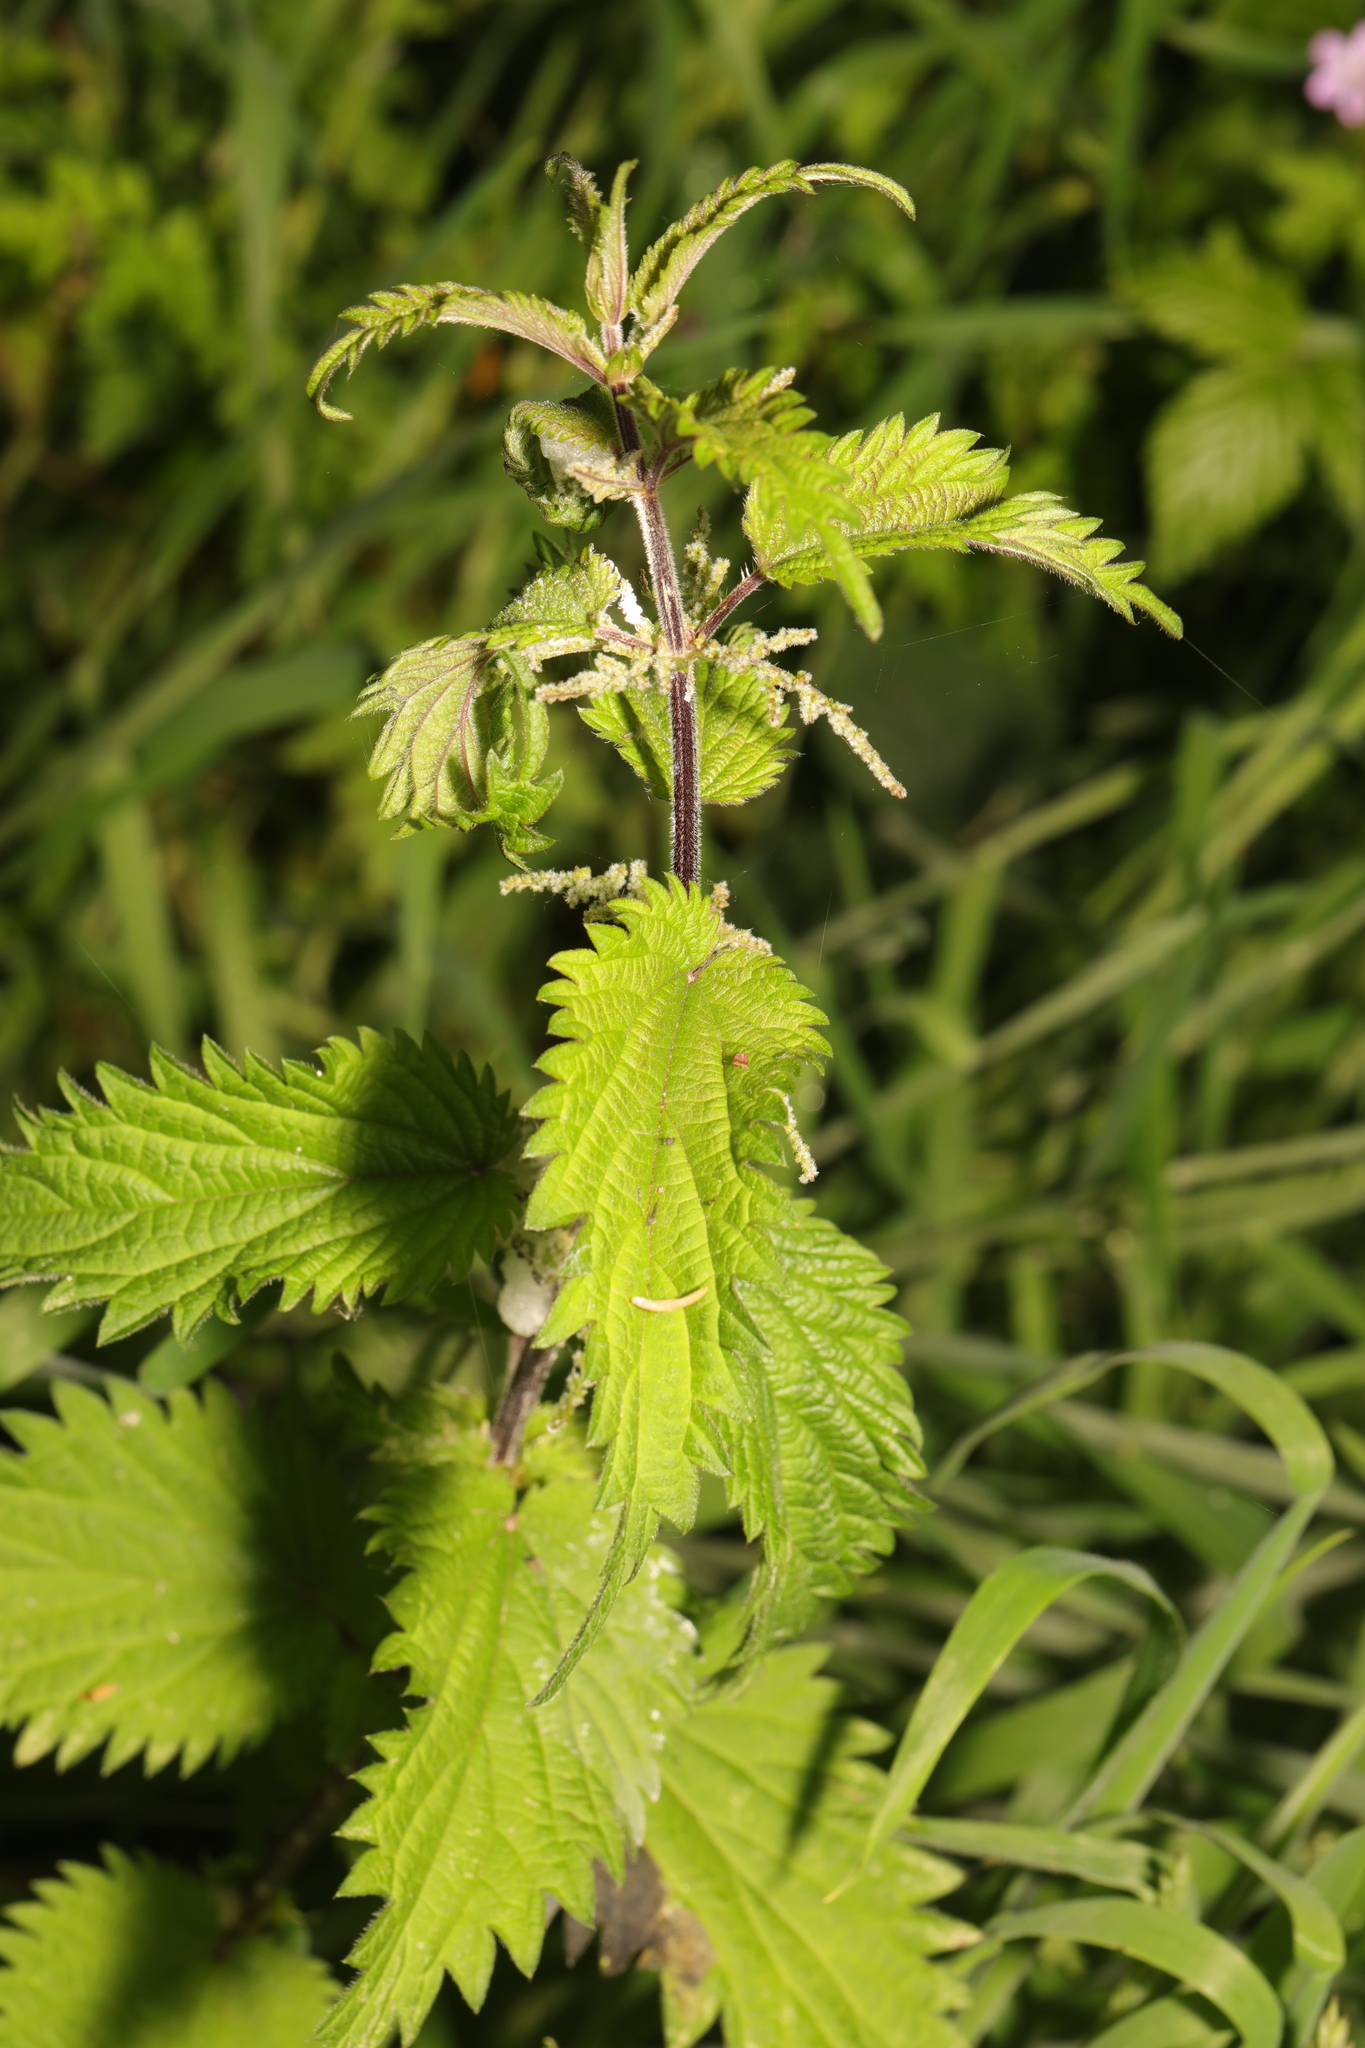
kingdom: Plantae
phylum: Tracheophyta
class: Magnoliopsida
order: Rosales
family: Urticaceae
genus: Urtica
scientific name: Urtica dioica
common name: Common nettle
